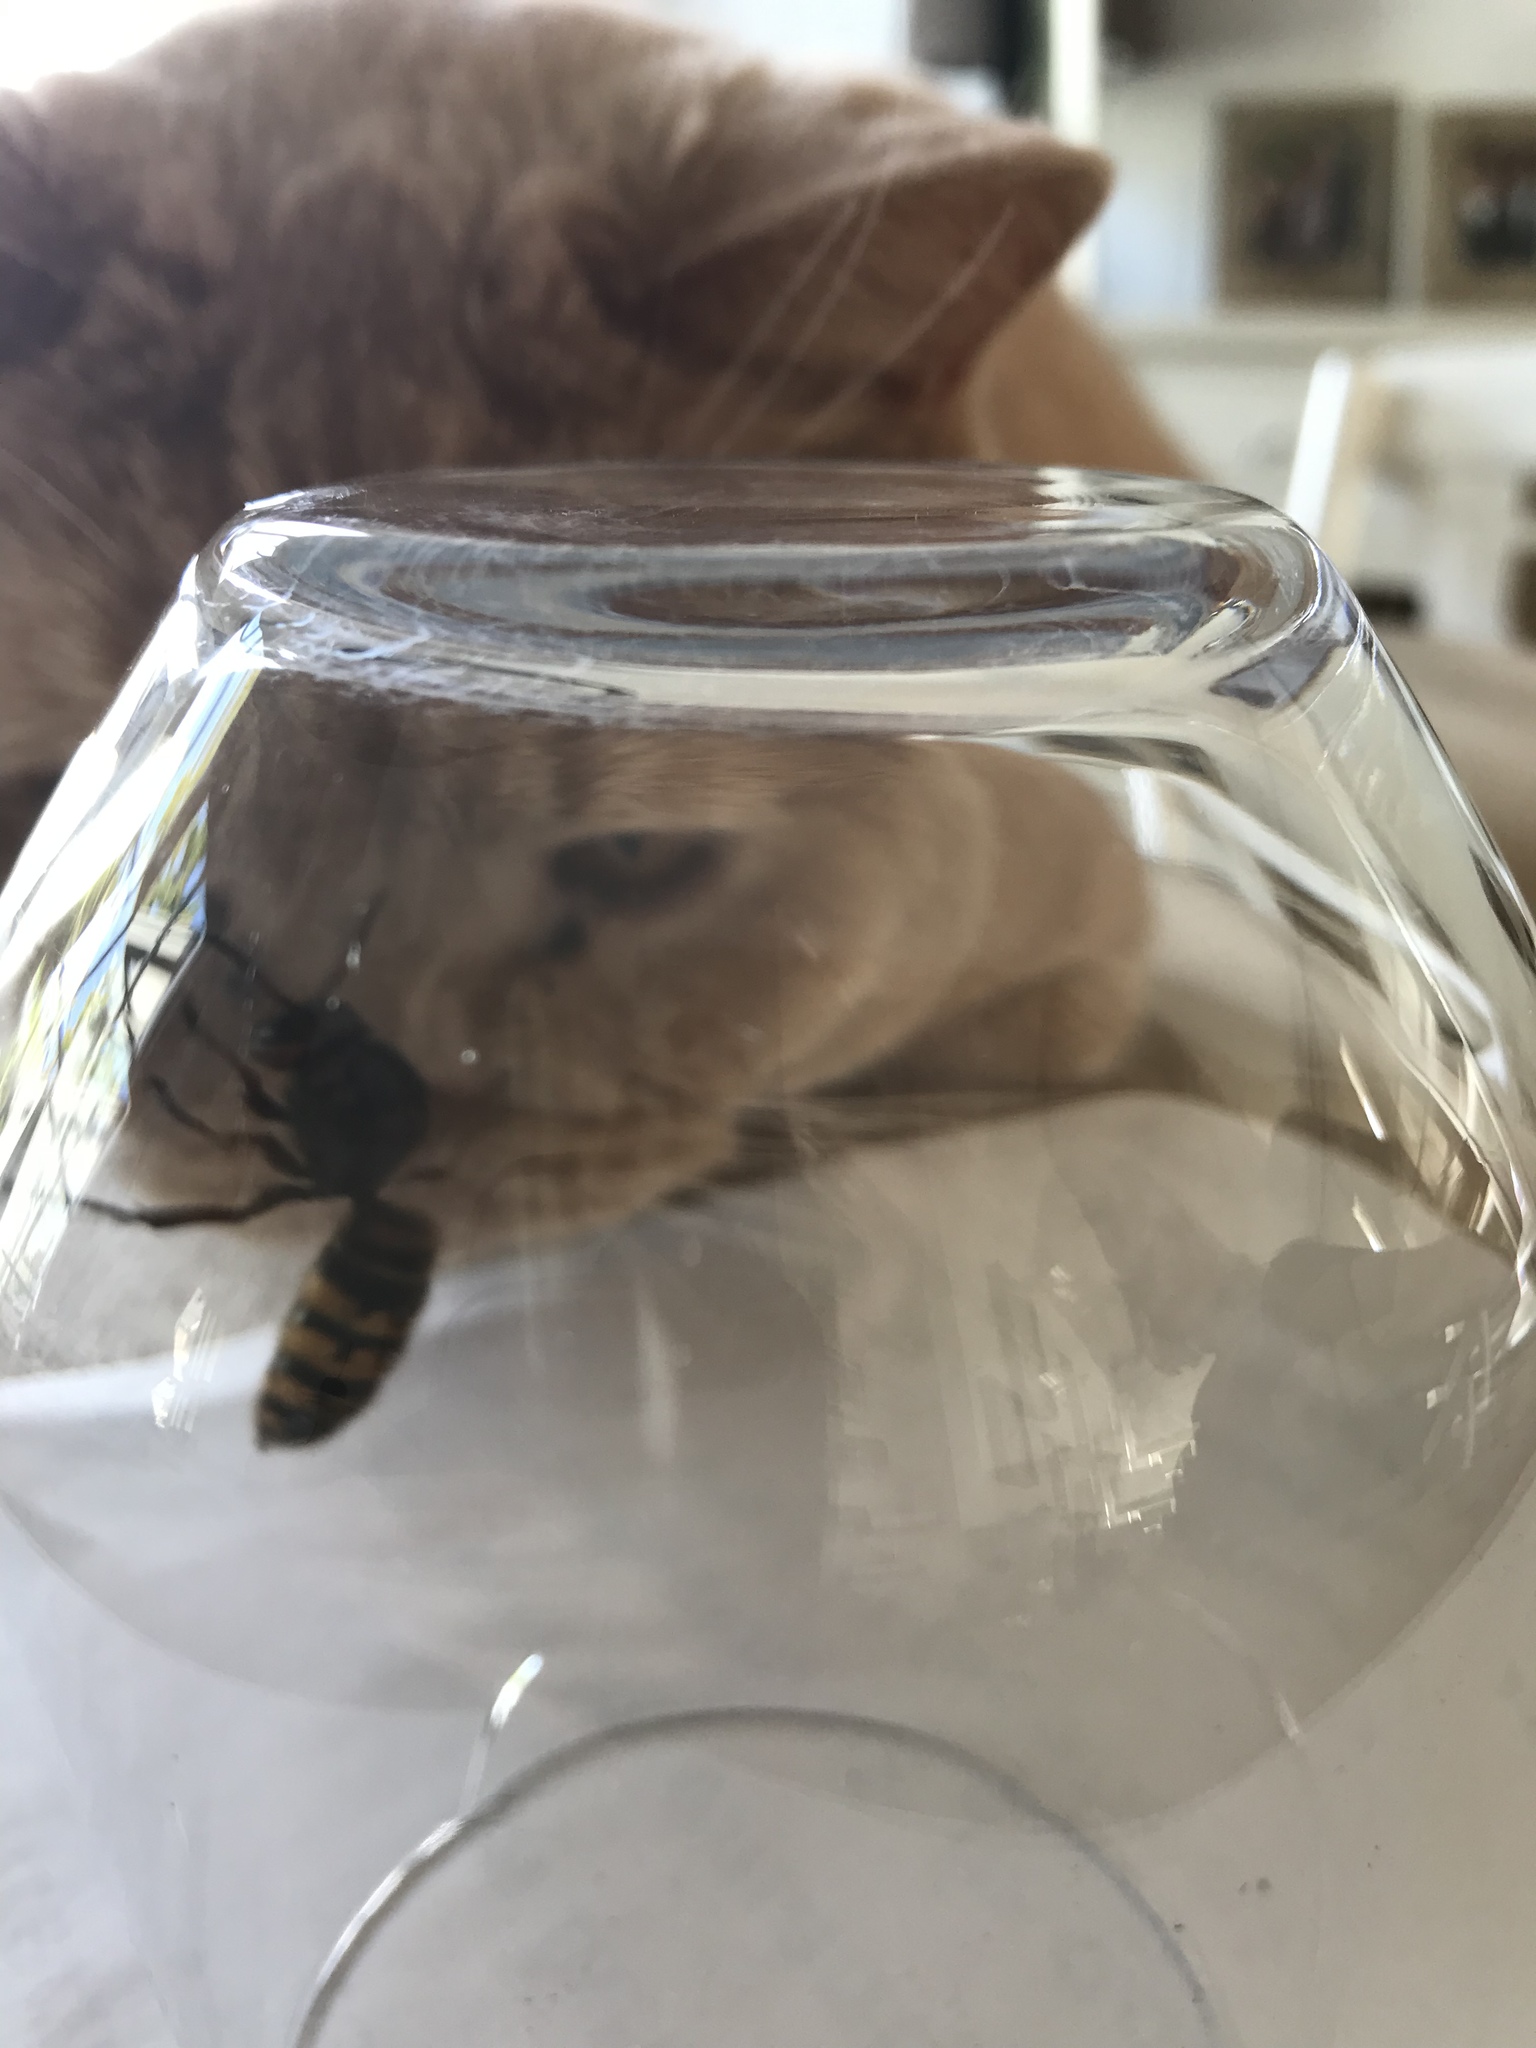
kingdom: Animalia
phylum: Arthropoda
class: Insecta
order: Hymenoptera
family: Vespidae
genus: Vespa
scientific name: Vespa crabro
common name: Hornet
